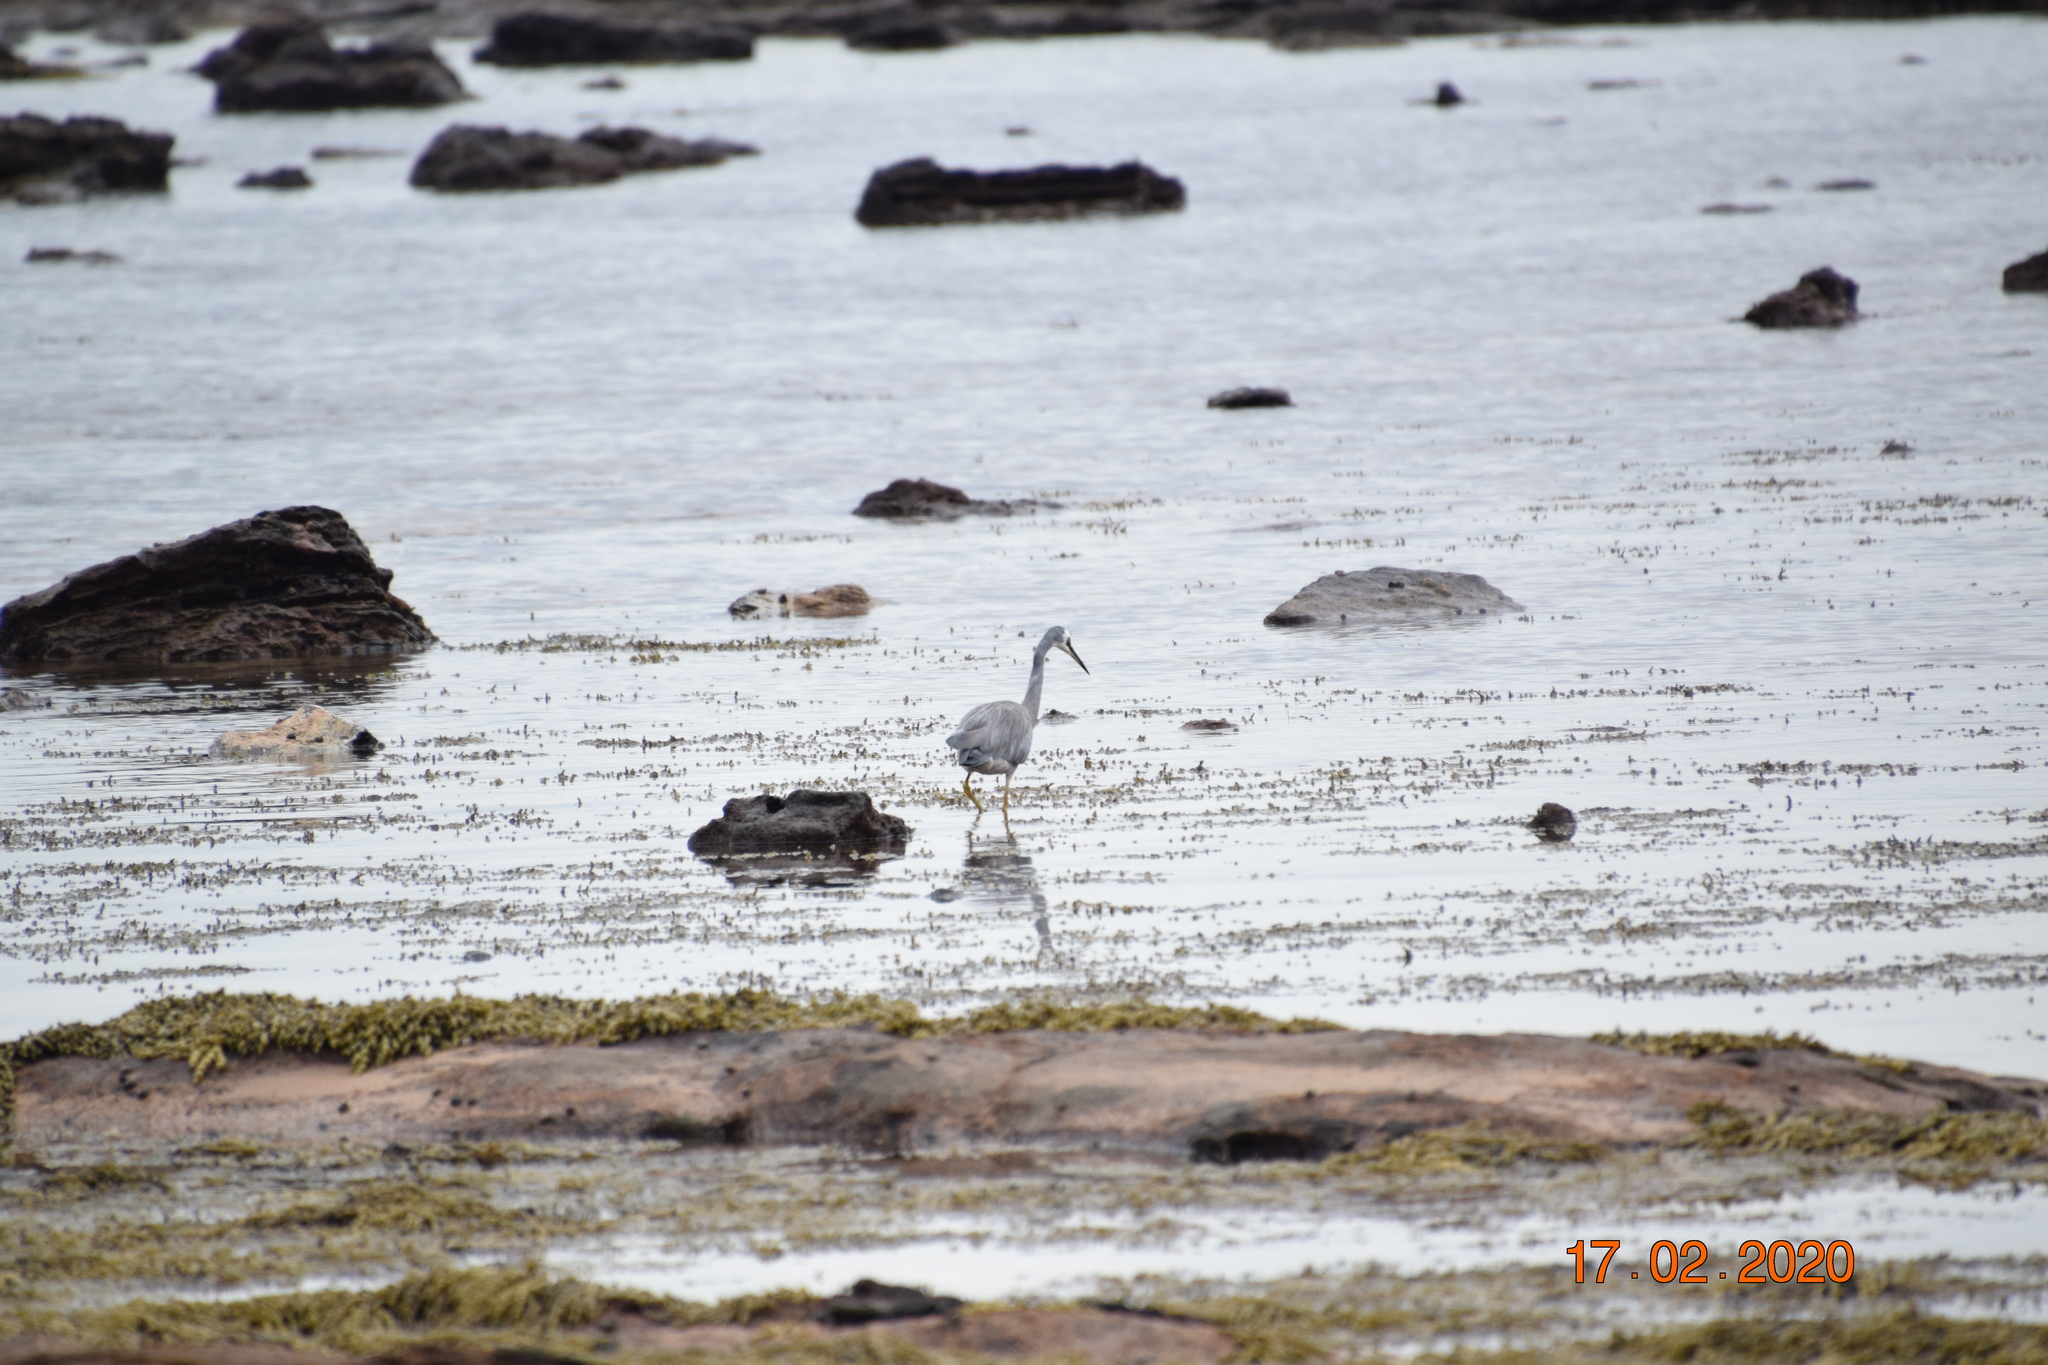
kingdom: Animalia
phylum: Chordata
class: Aves
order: Pelecaniformes
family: Ardeidae
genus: Egretta
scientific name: Egretta novaehollandiae
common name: White-faced heron
